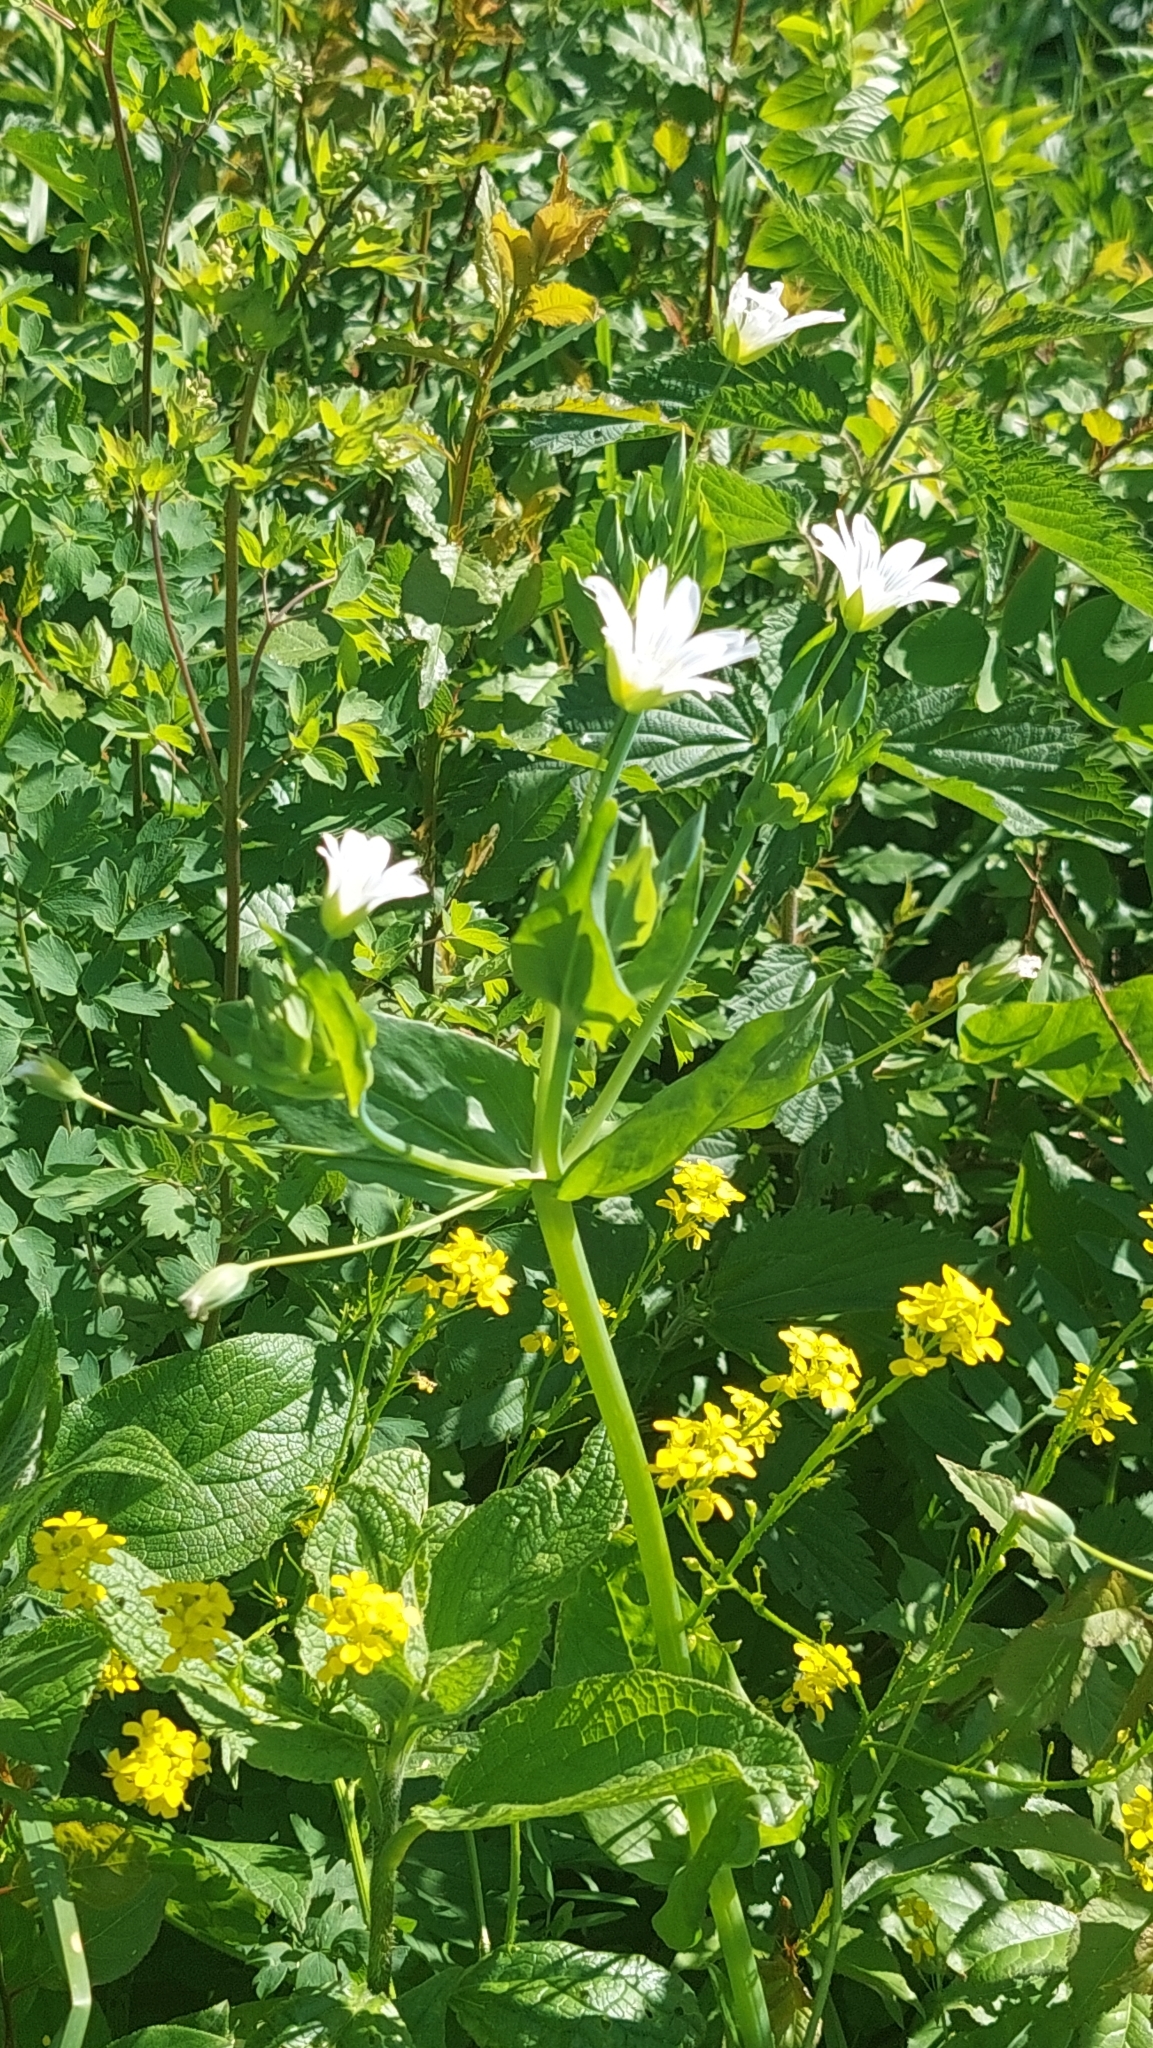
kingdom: Plantae
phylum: Tracheophyta
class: Magnoliopsida
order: Caryophyllales
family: Caryophyllaceae
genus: Cerastium
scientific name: Cerastium davuricum
